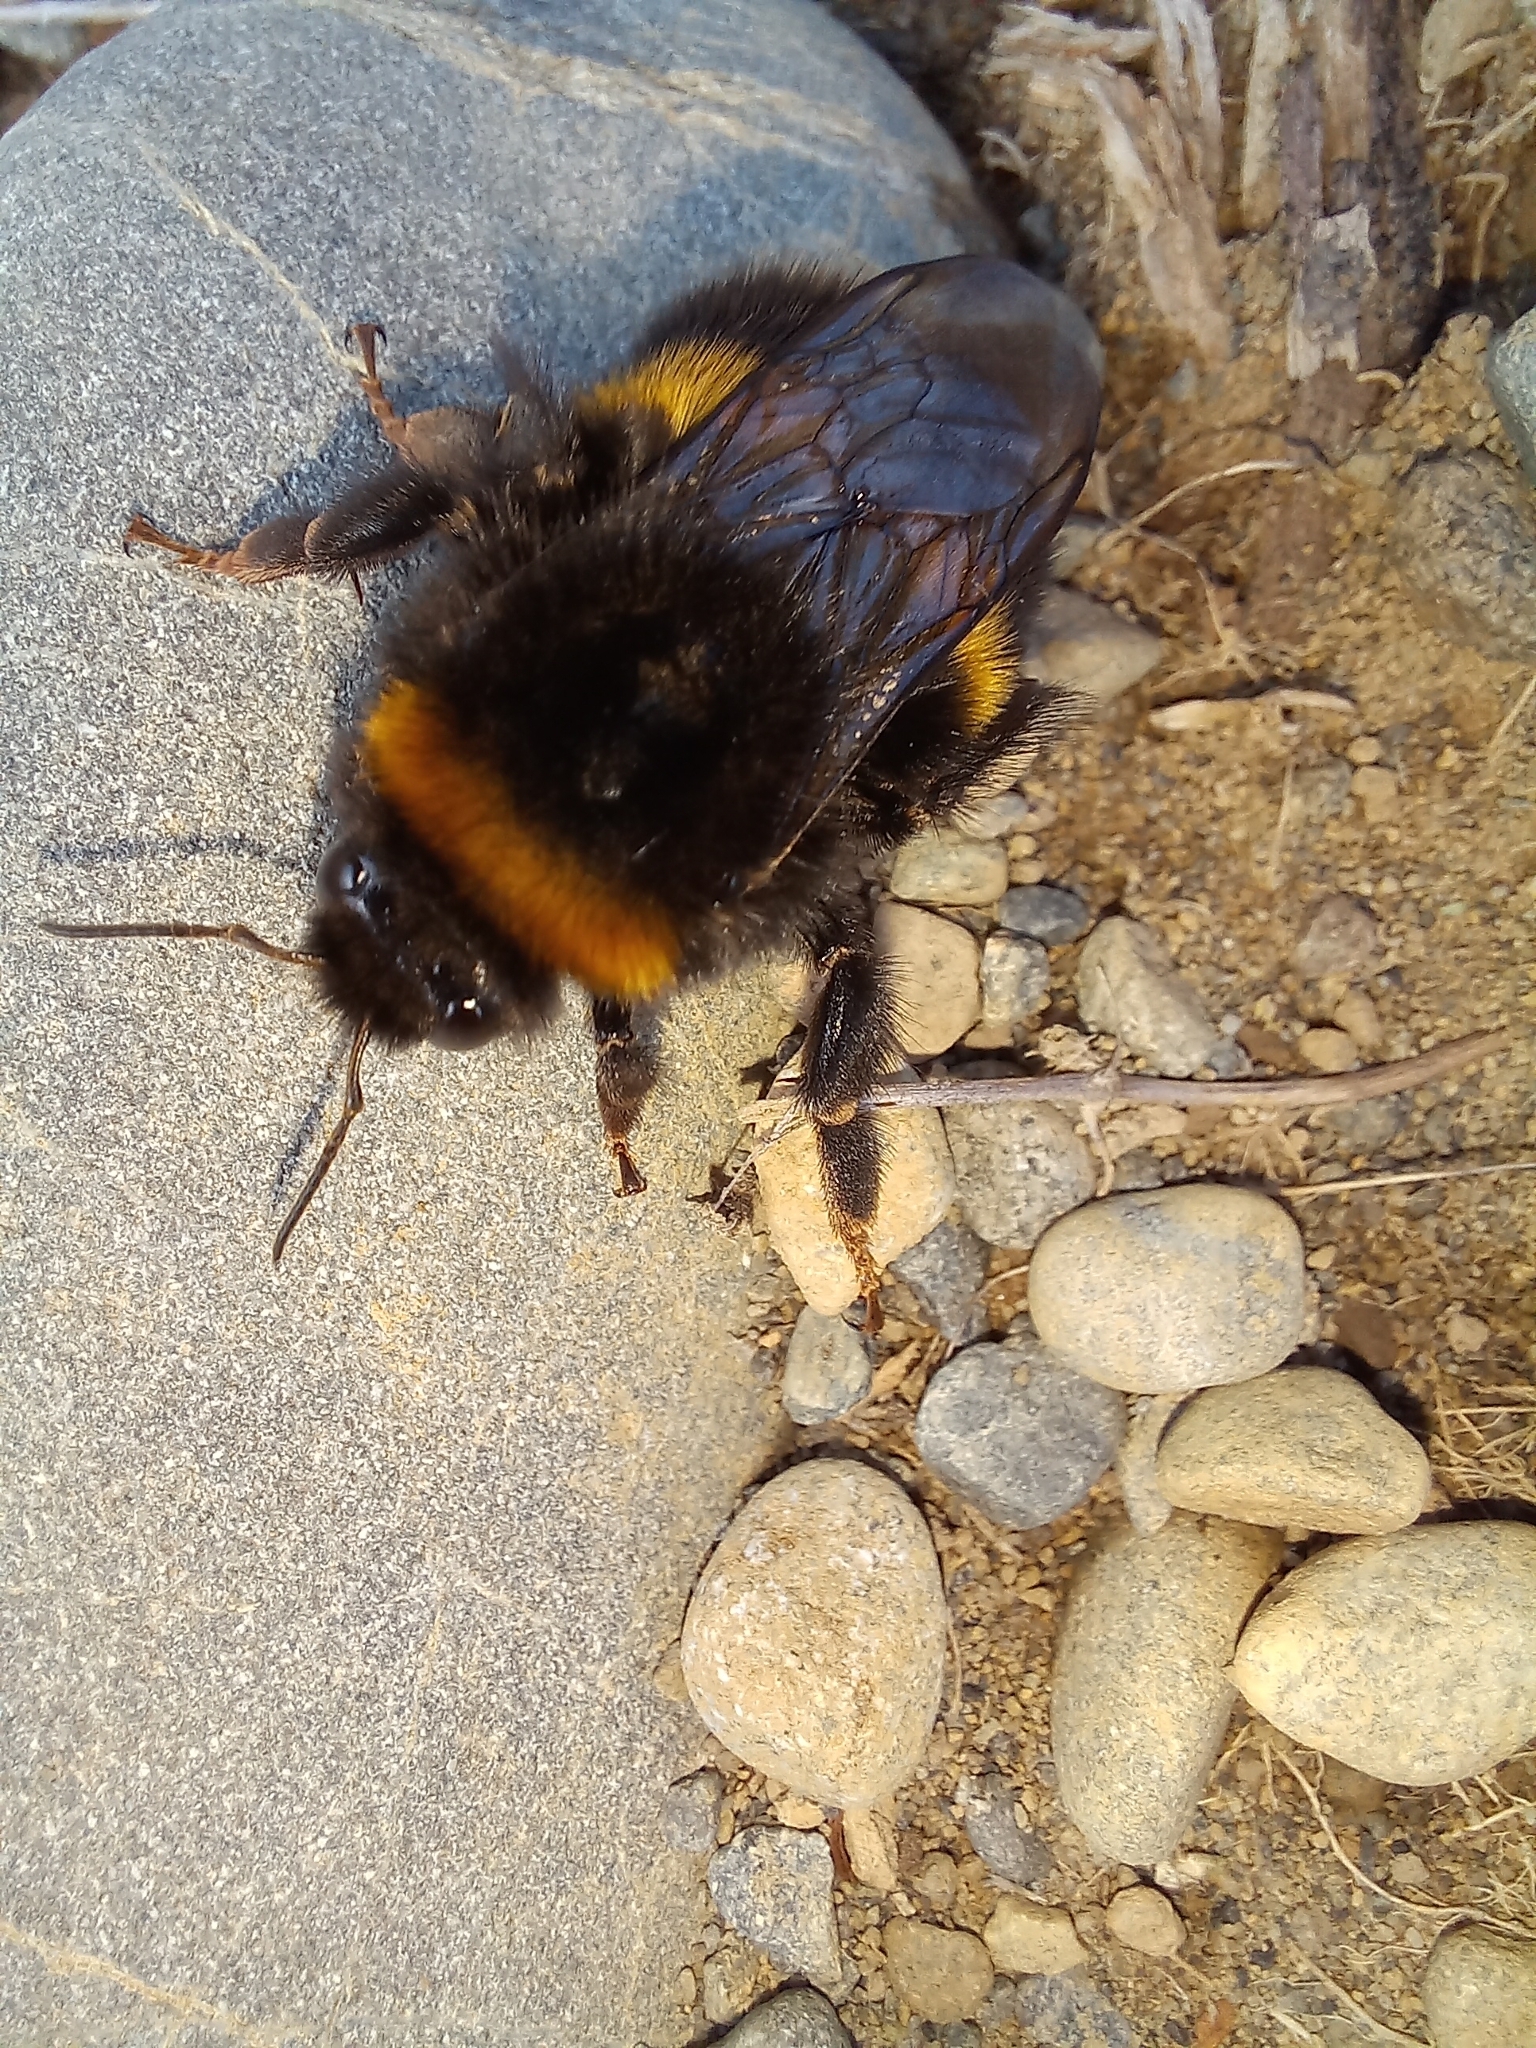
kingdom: Animalia
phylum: Arthropoda
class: Insecta
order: Hymenoptera
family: Apidae
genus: Bombus
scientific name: Bombus terrestris
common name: Buff-tailed bumblebee
